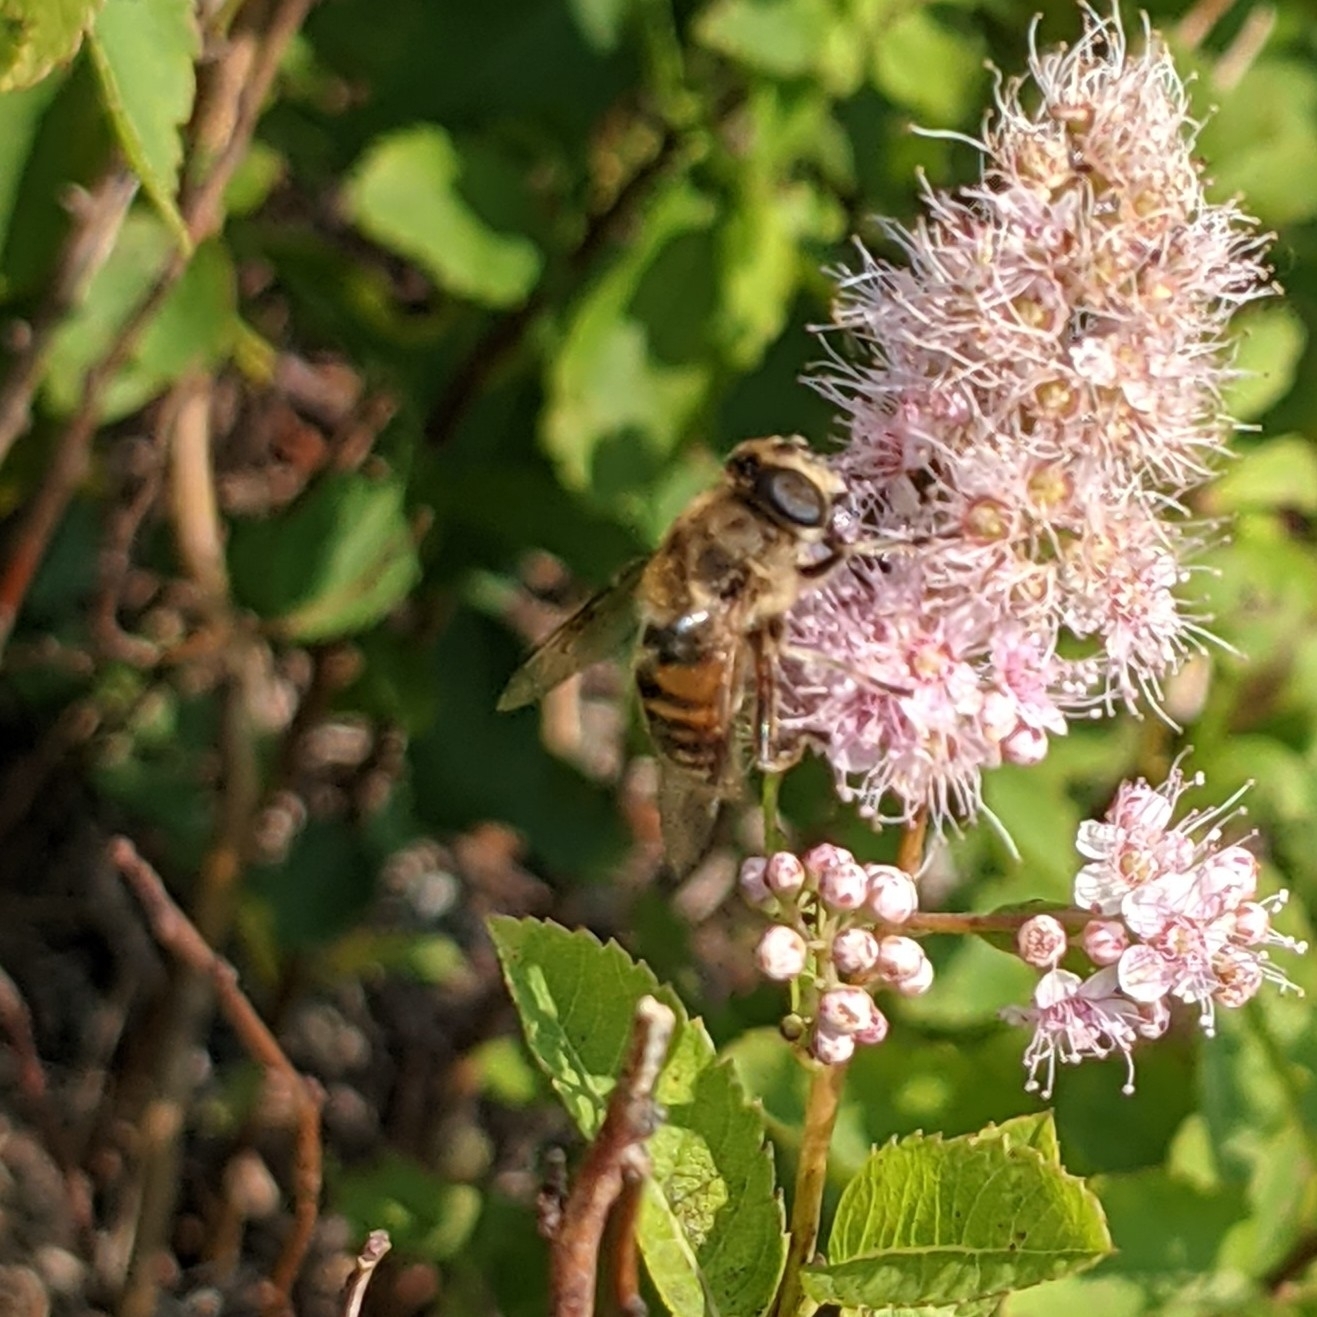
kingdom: Animalia
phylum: Arthropoda
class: Insecta
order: Diptera
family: Syrphidae
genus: Eristalis
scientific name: Eristalis tenax
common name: Drone fly
